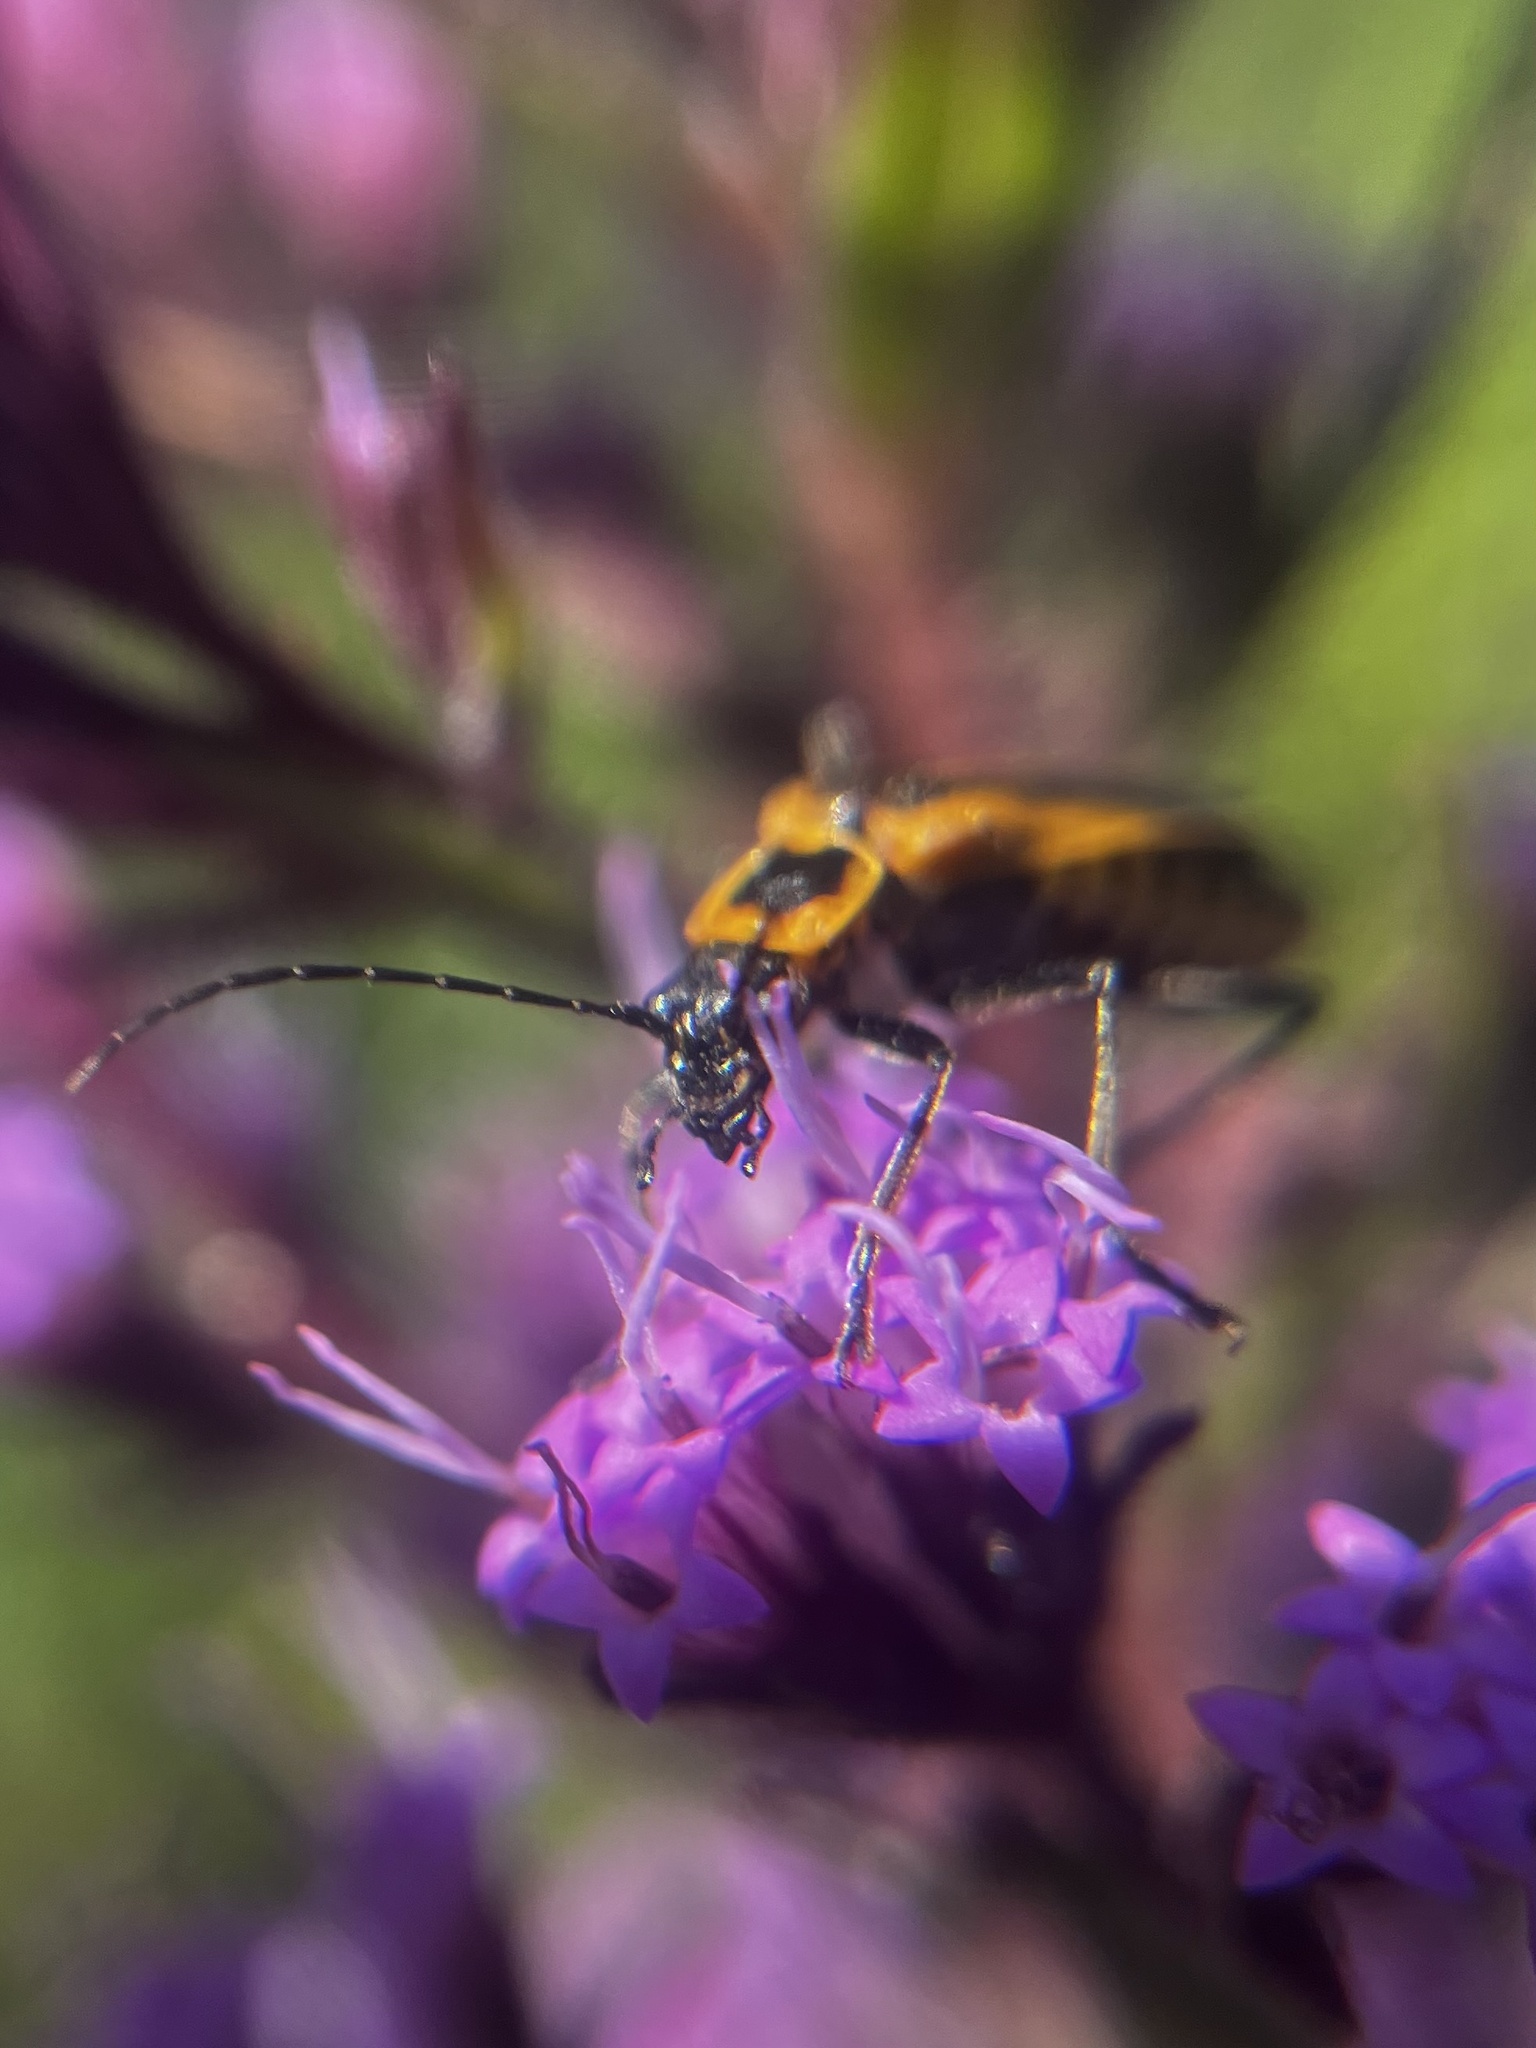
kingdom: Animalia
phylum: Arthropoda
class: Insecta
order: Coleoptera
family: Cantharidae
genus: Chauliognathus
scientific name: Chauliognathus pensylvanicus
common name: Goldenrod soldier beetle
